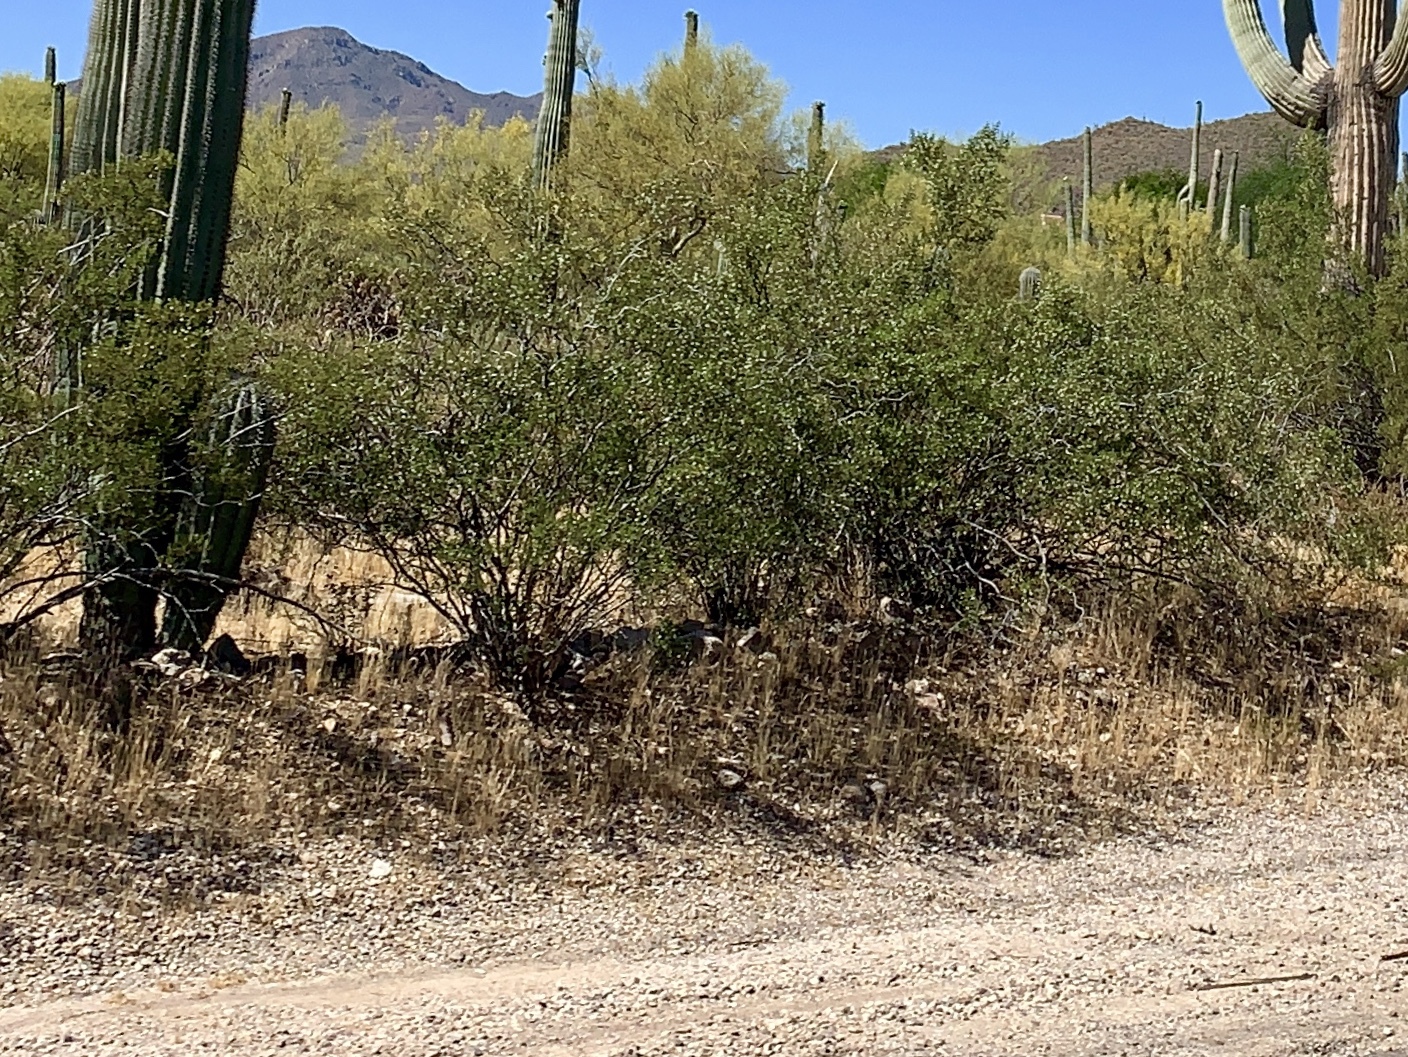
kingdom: Plantae
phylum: Tracheophyta
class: Magnoliopsida
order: Zygophyllales
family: Zygophyllaceae
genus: Larrea
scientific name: Larrea tridentata
